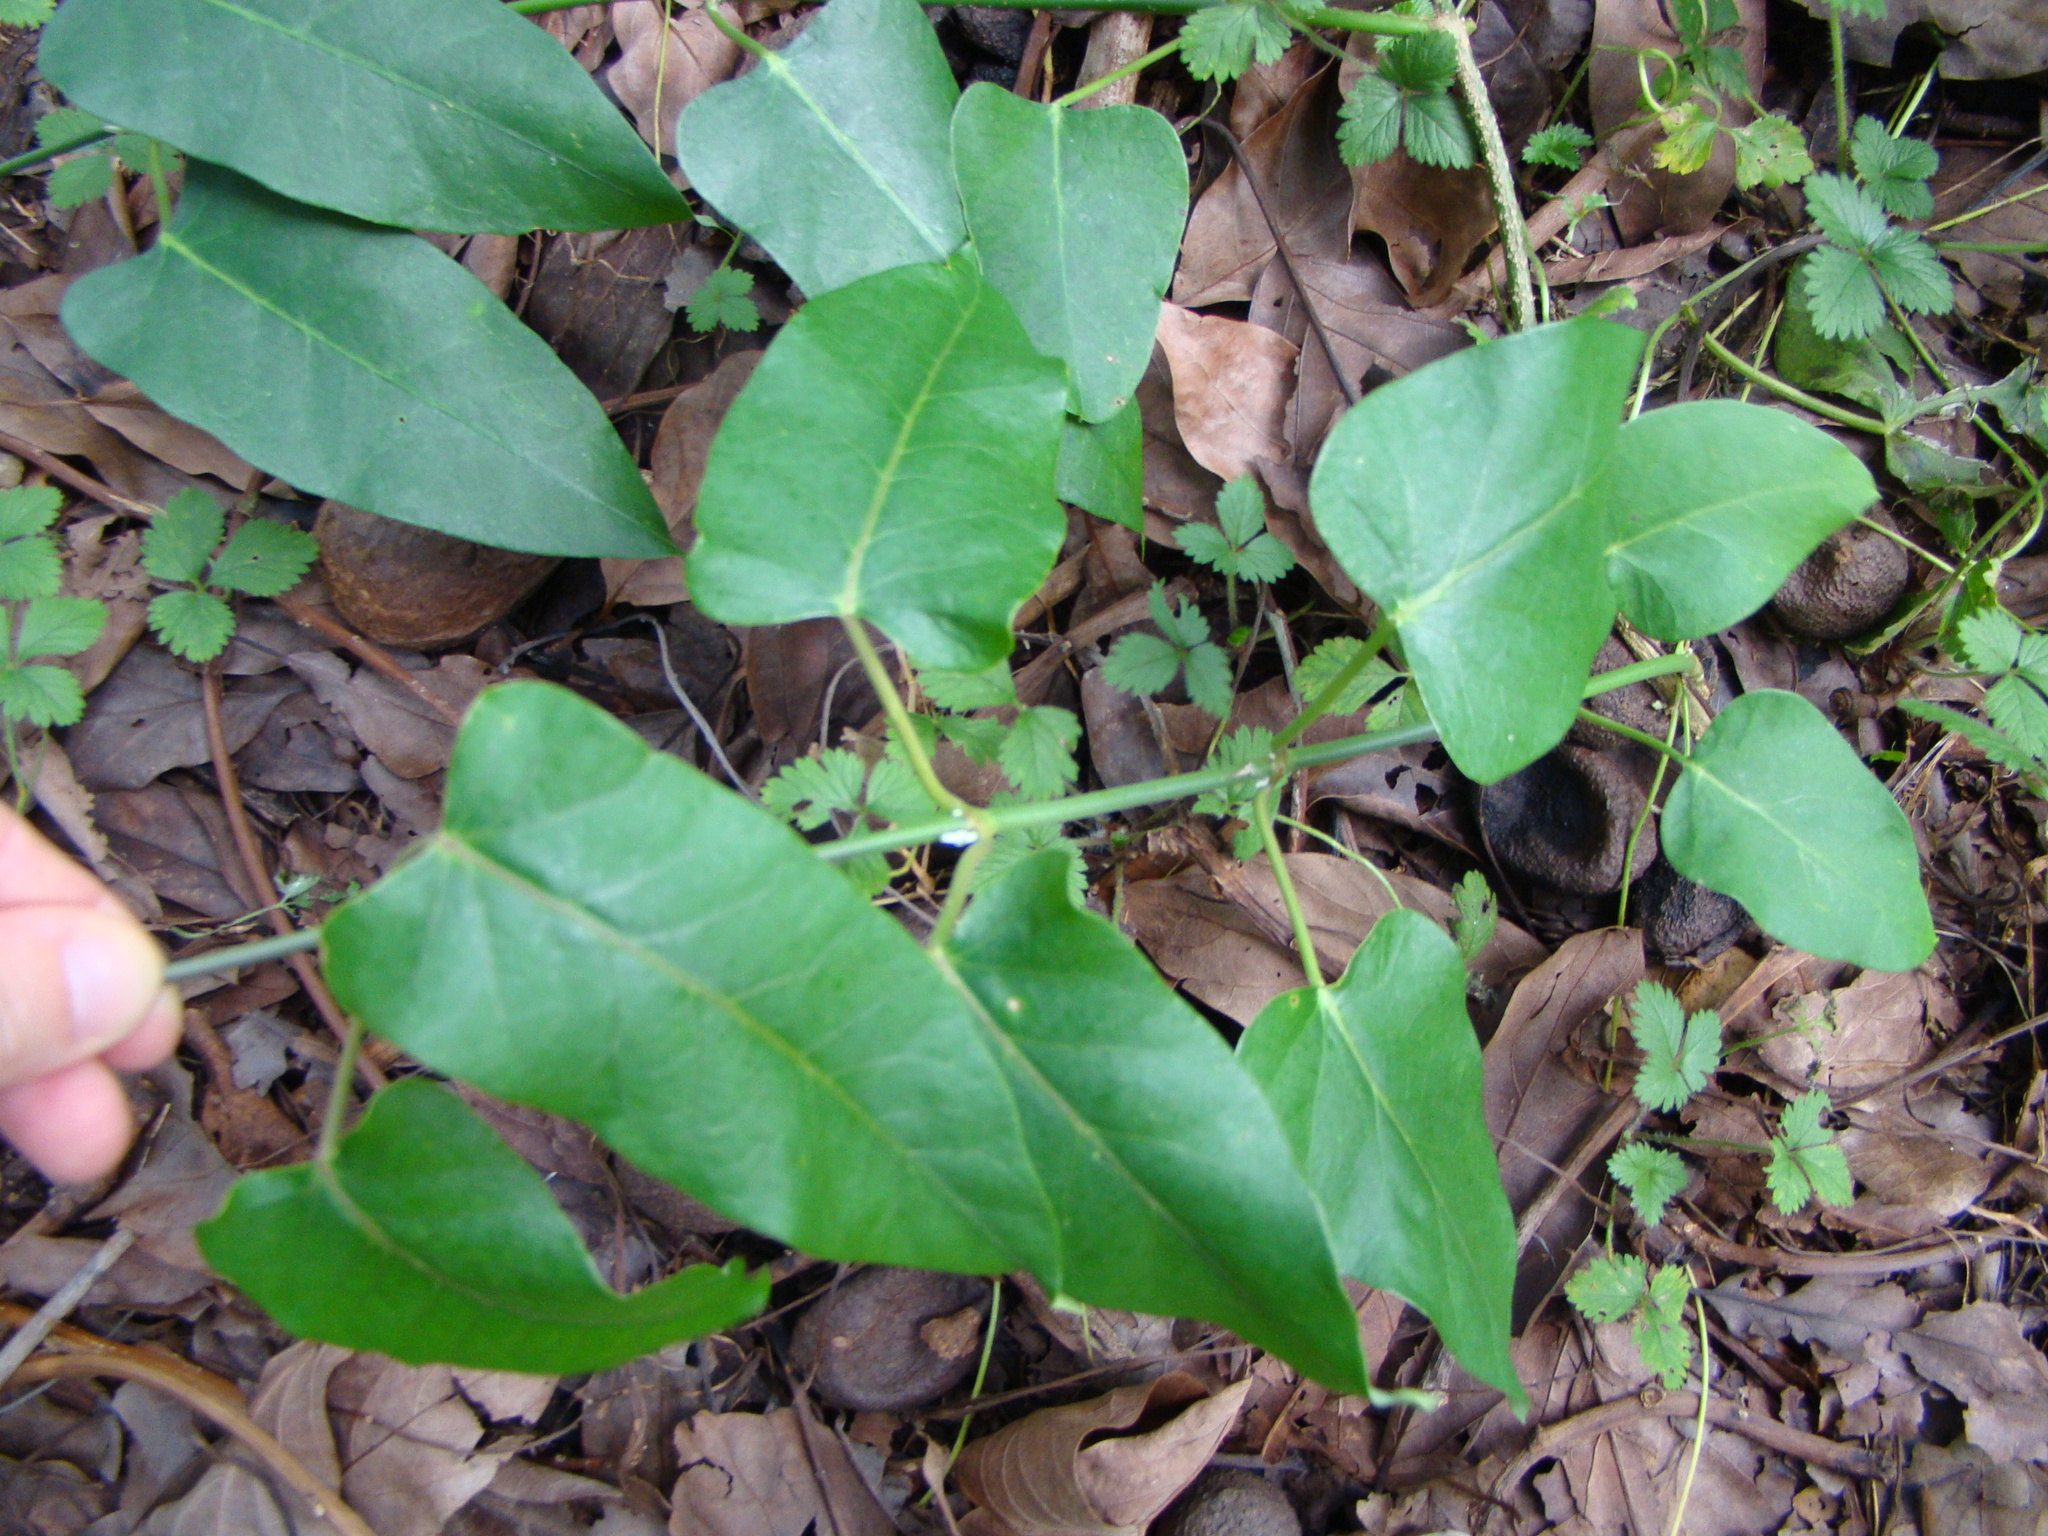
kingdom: Plantae
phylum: Tracheophyta
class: Magnoliopsida
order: Gentianales
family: Apocynaceae
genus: Araujia
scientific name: Araujia sericifera
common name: White bladderflower
